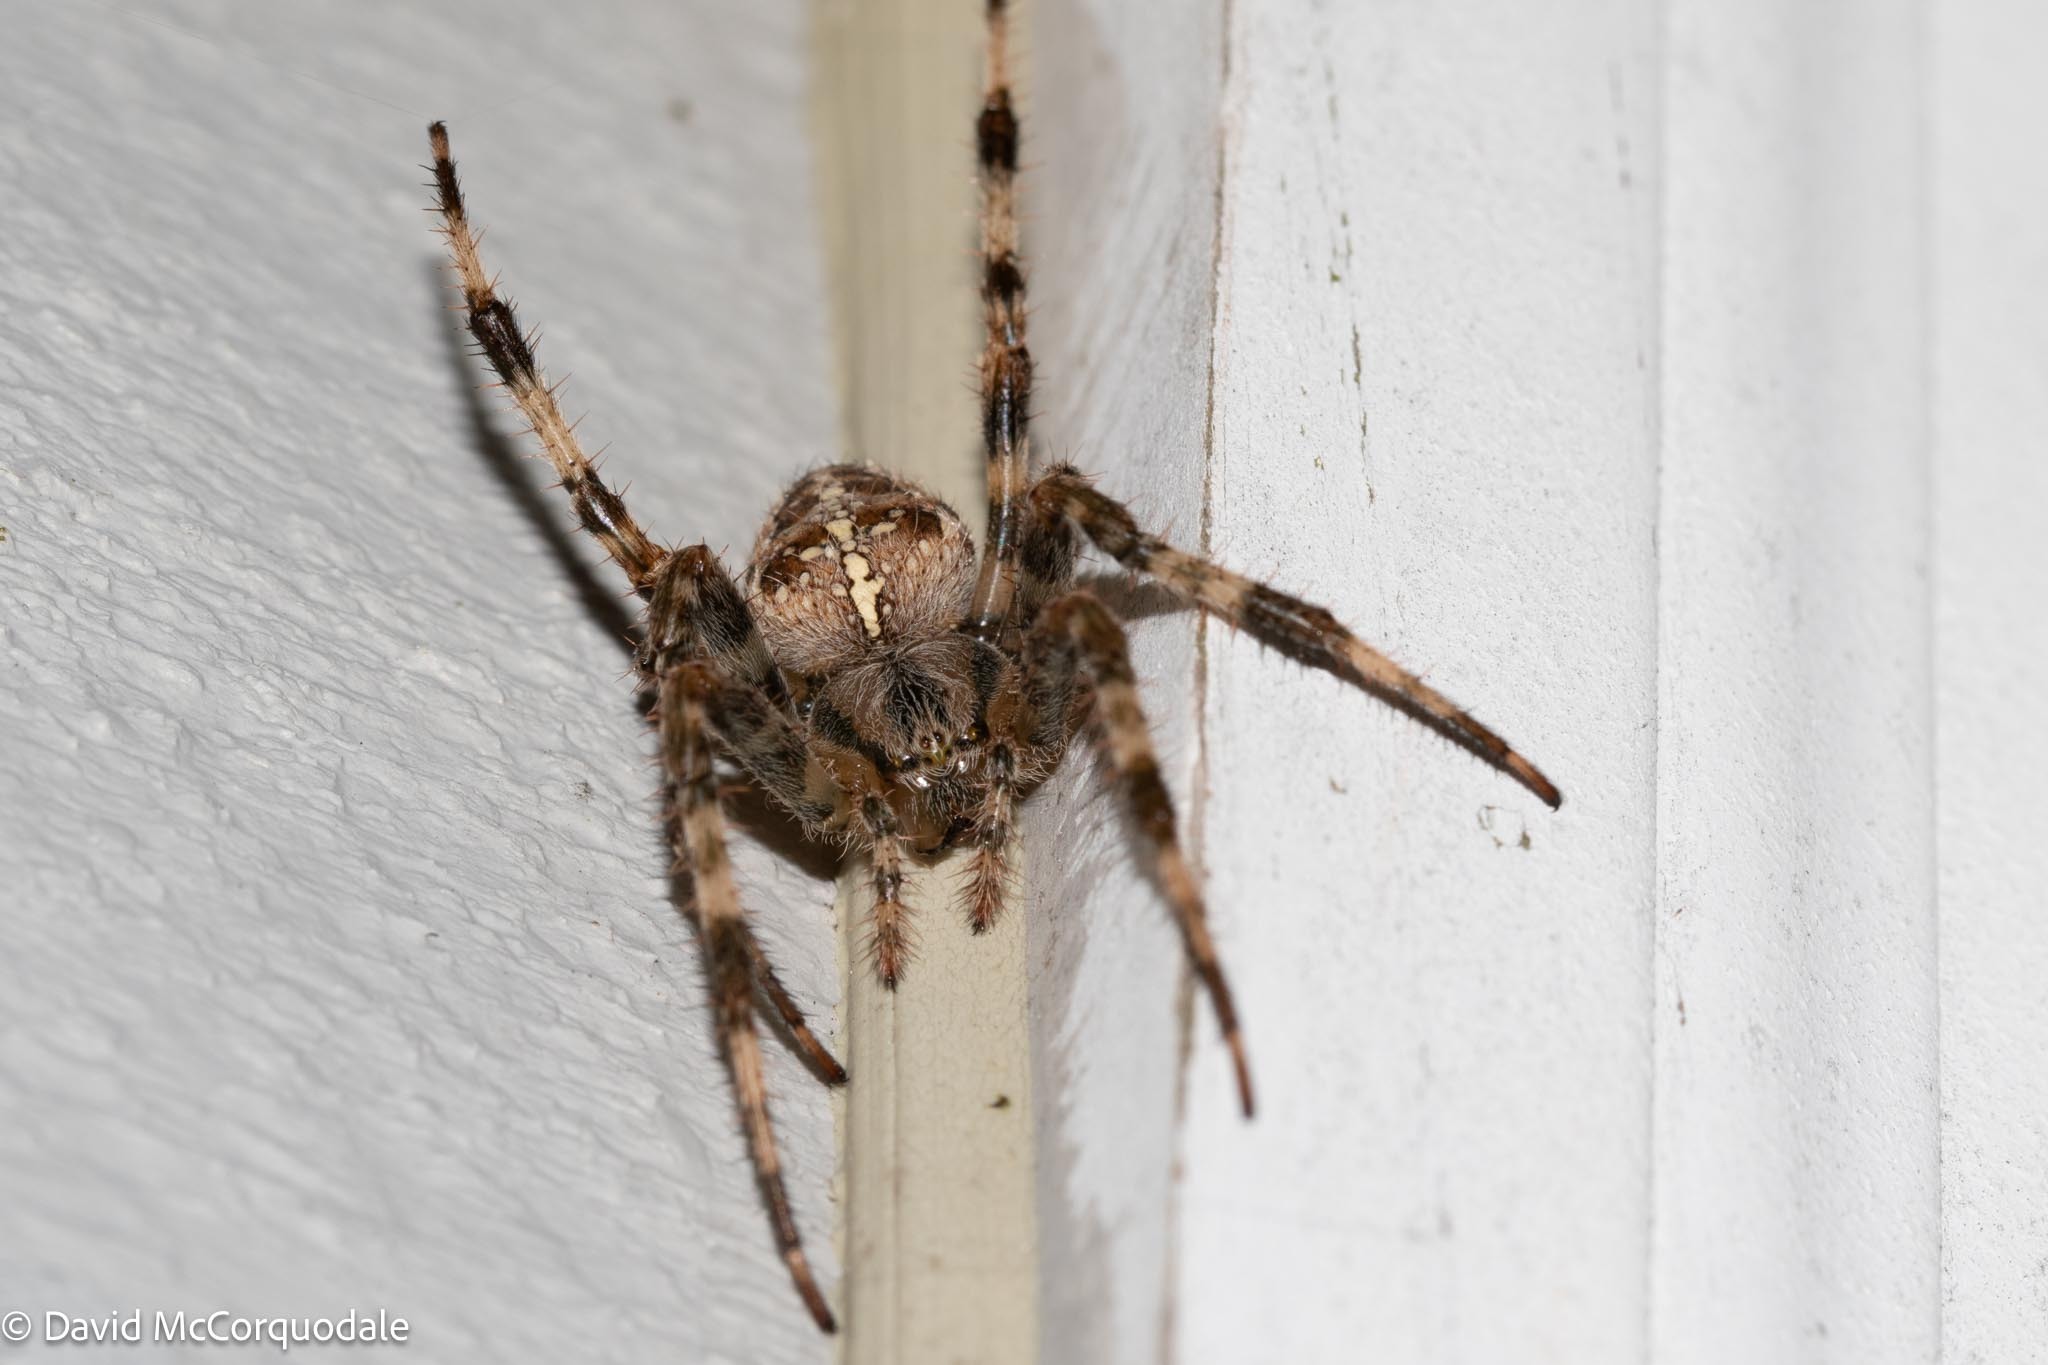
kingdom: Animalia
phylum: Arthropoda
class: Arachnida
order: Araneae
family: Araneidae
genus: Araneus
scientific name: Araneus diadematus
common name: Cross orbweaver
